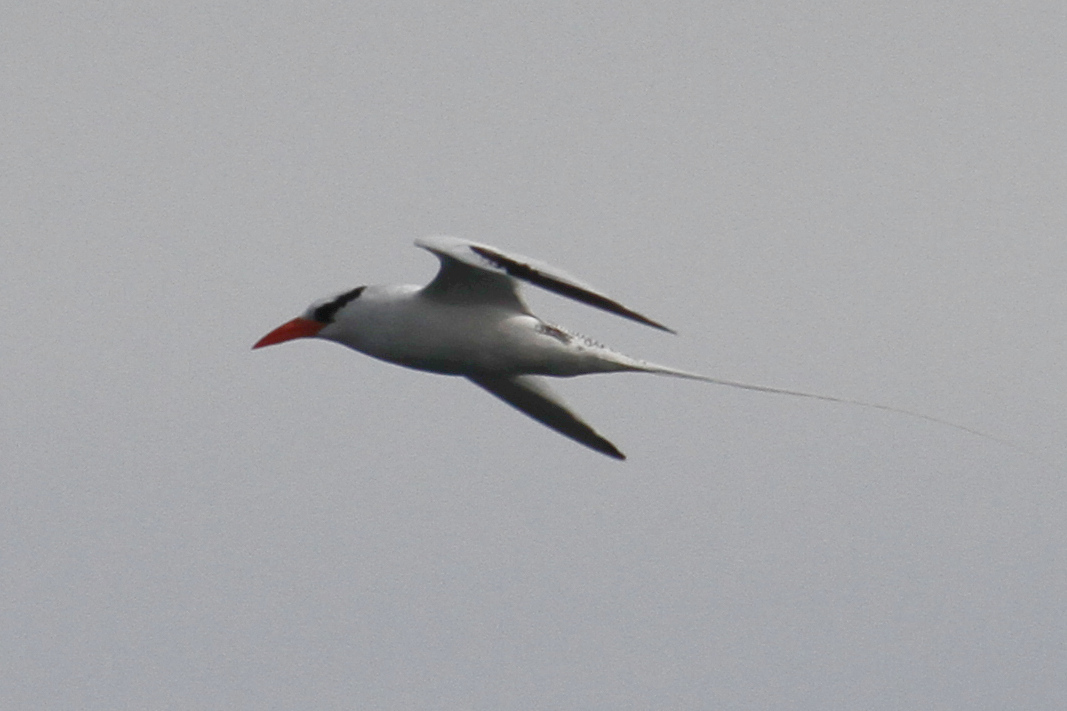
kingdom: Animalia
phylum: Chordata
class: Aves
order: Phaethontiformes
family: Phaethontidae
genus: Phaethon
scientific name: Phaethon aethereus
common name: Red-billed tropicbird
